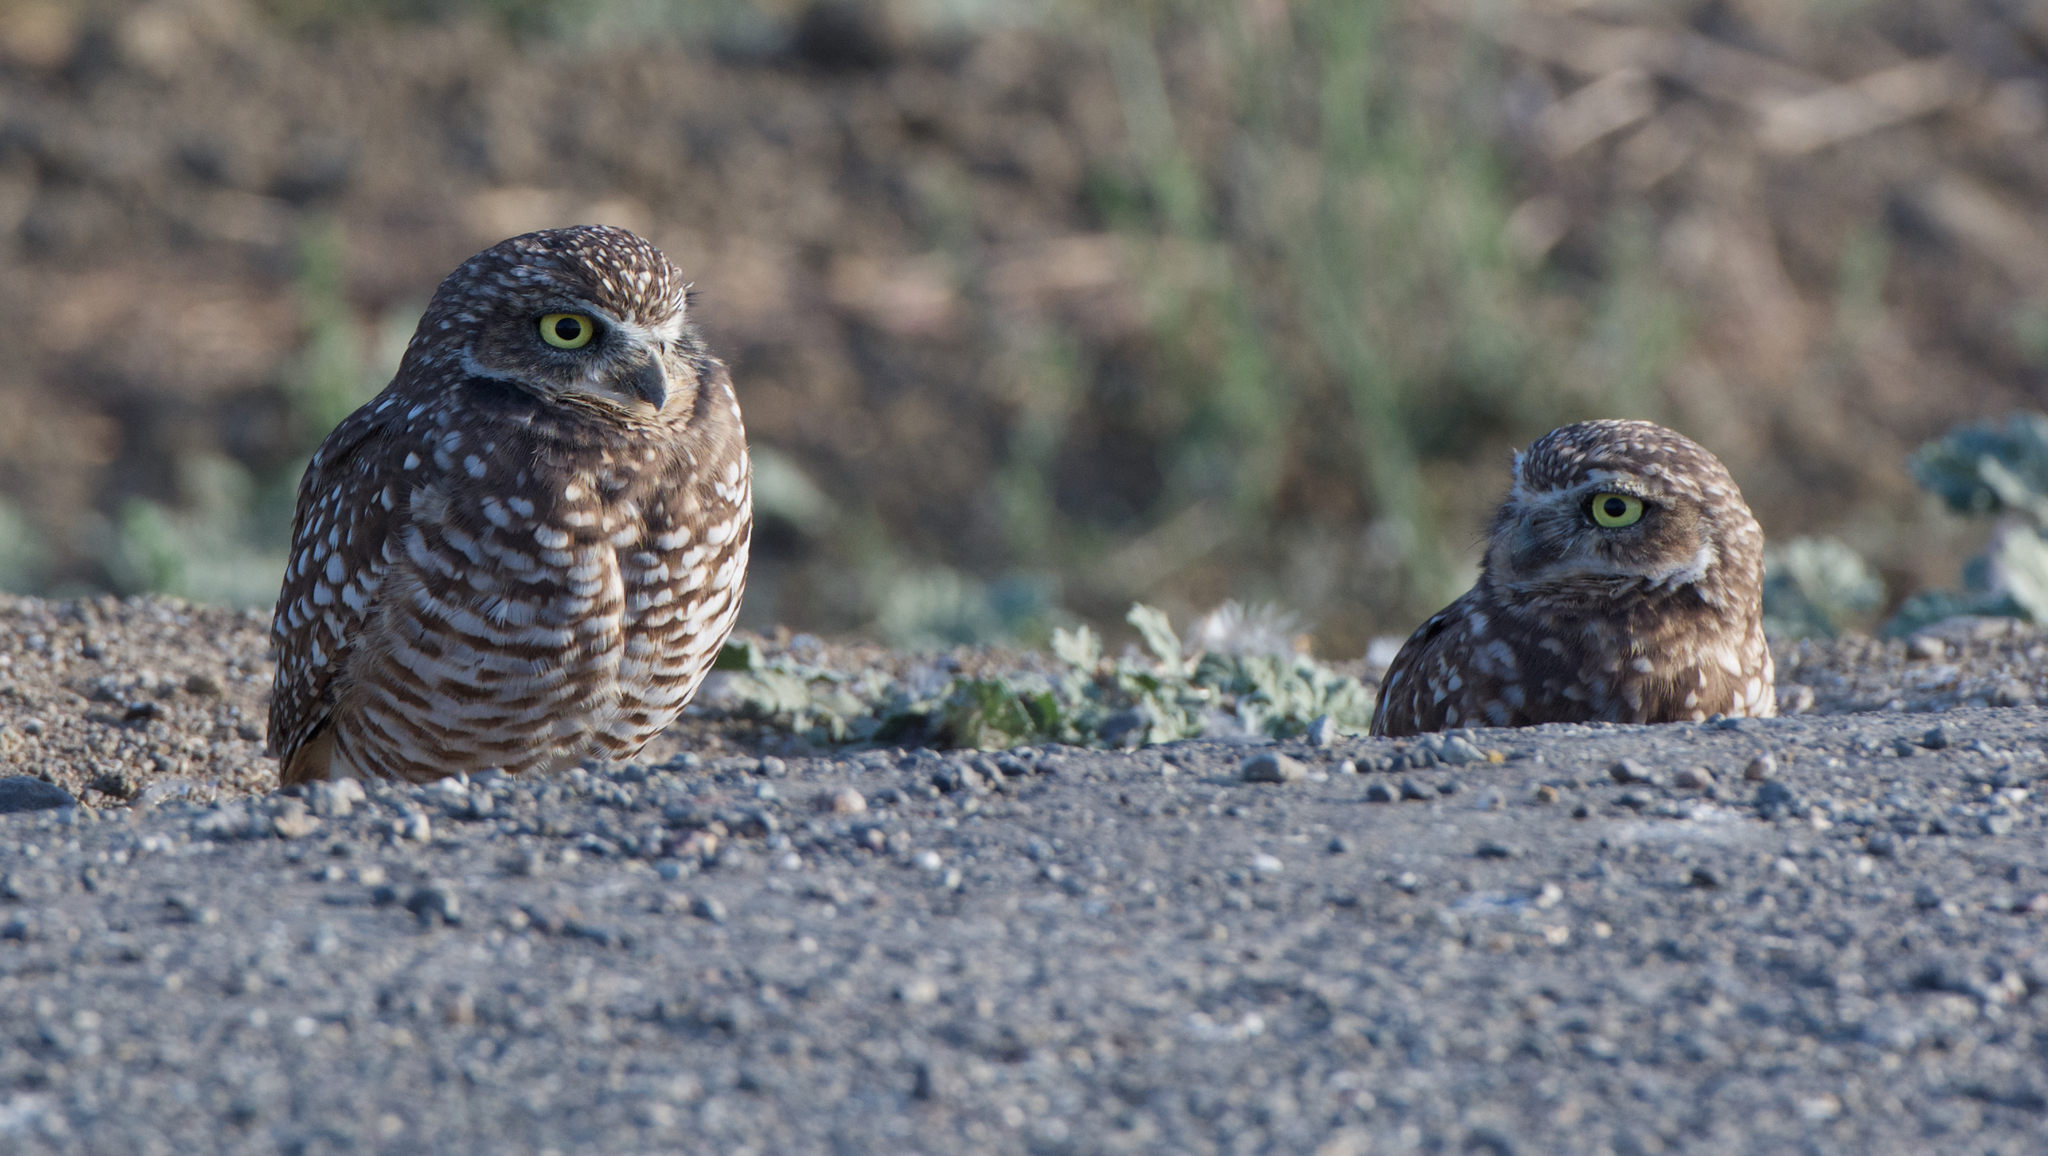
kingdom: Animalia
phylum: Chordata
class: Aves
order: Strigiformes
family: Strigidae
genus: Athene
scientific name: Athene cunicularia
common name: Burrowing owl
